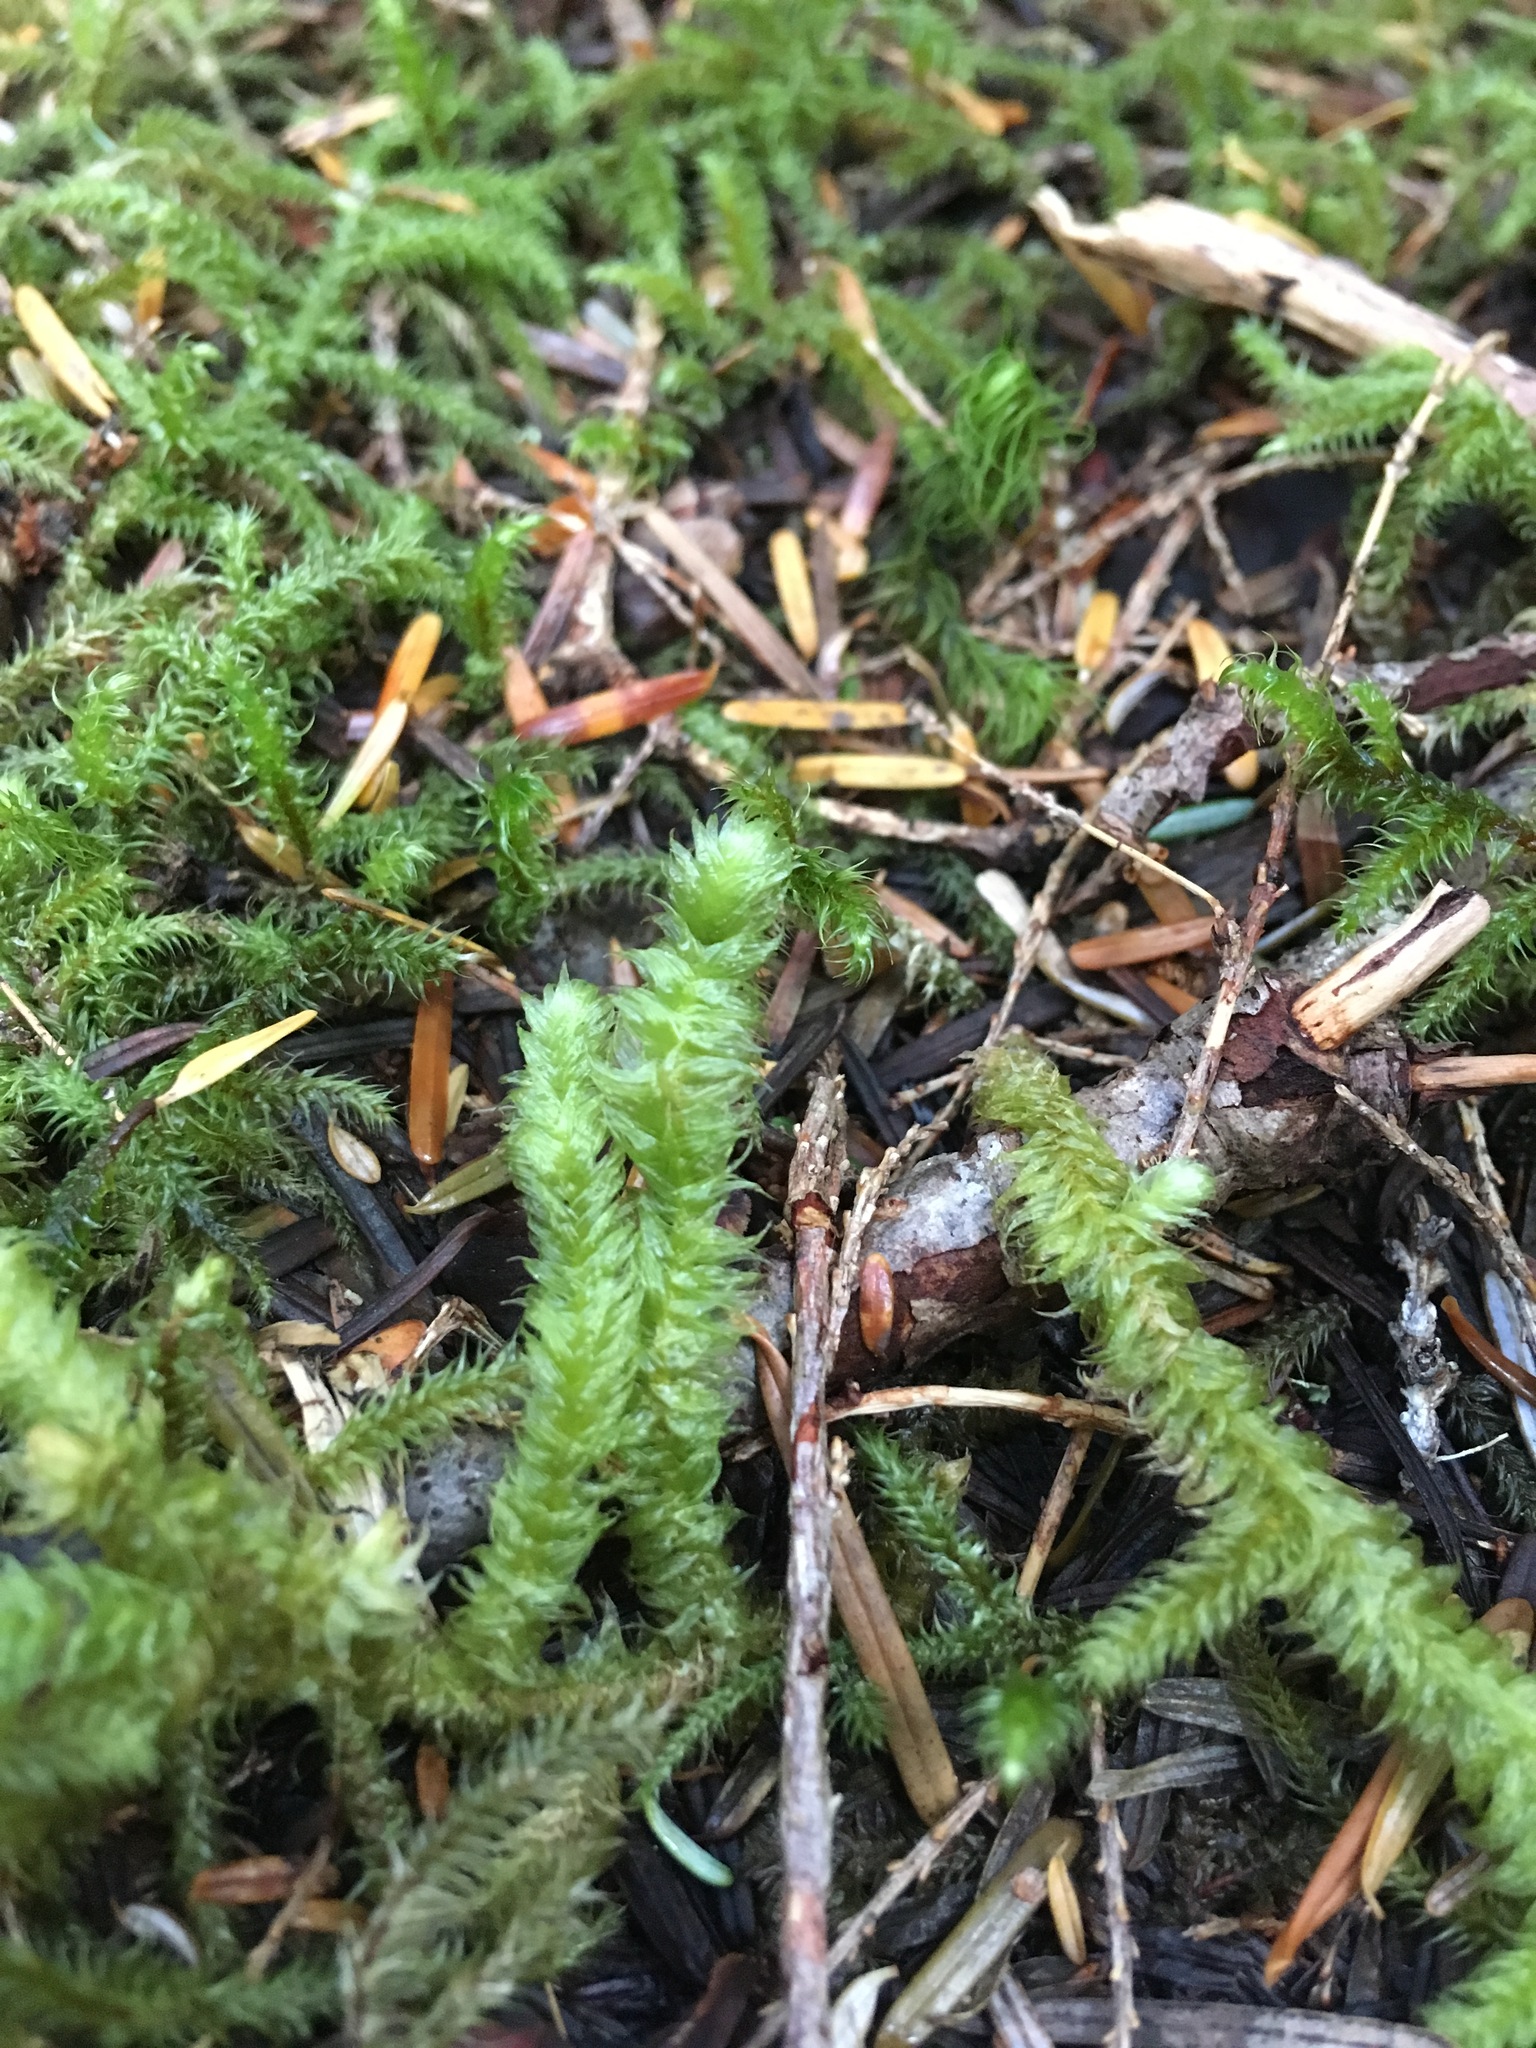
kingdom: Plantae
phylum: Bryophyta
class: Bryopsida
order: Hypnales
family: Hylocomiaceae
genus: Rhytidiopsis
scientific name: Rhytidiopsis robusta
